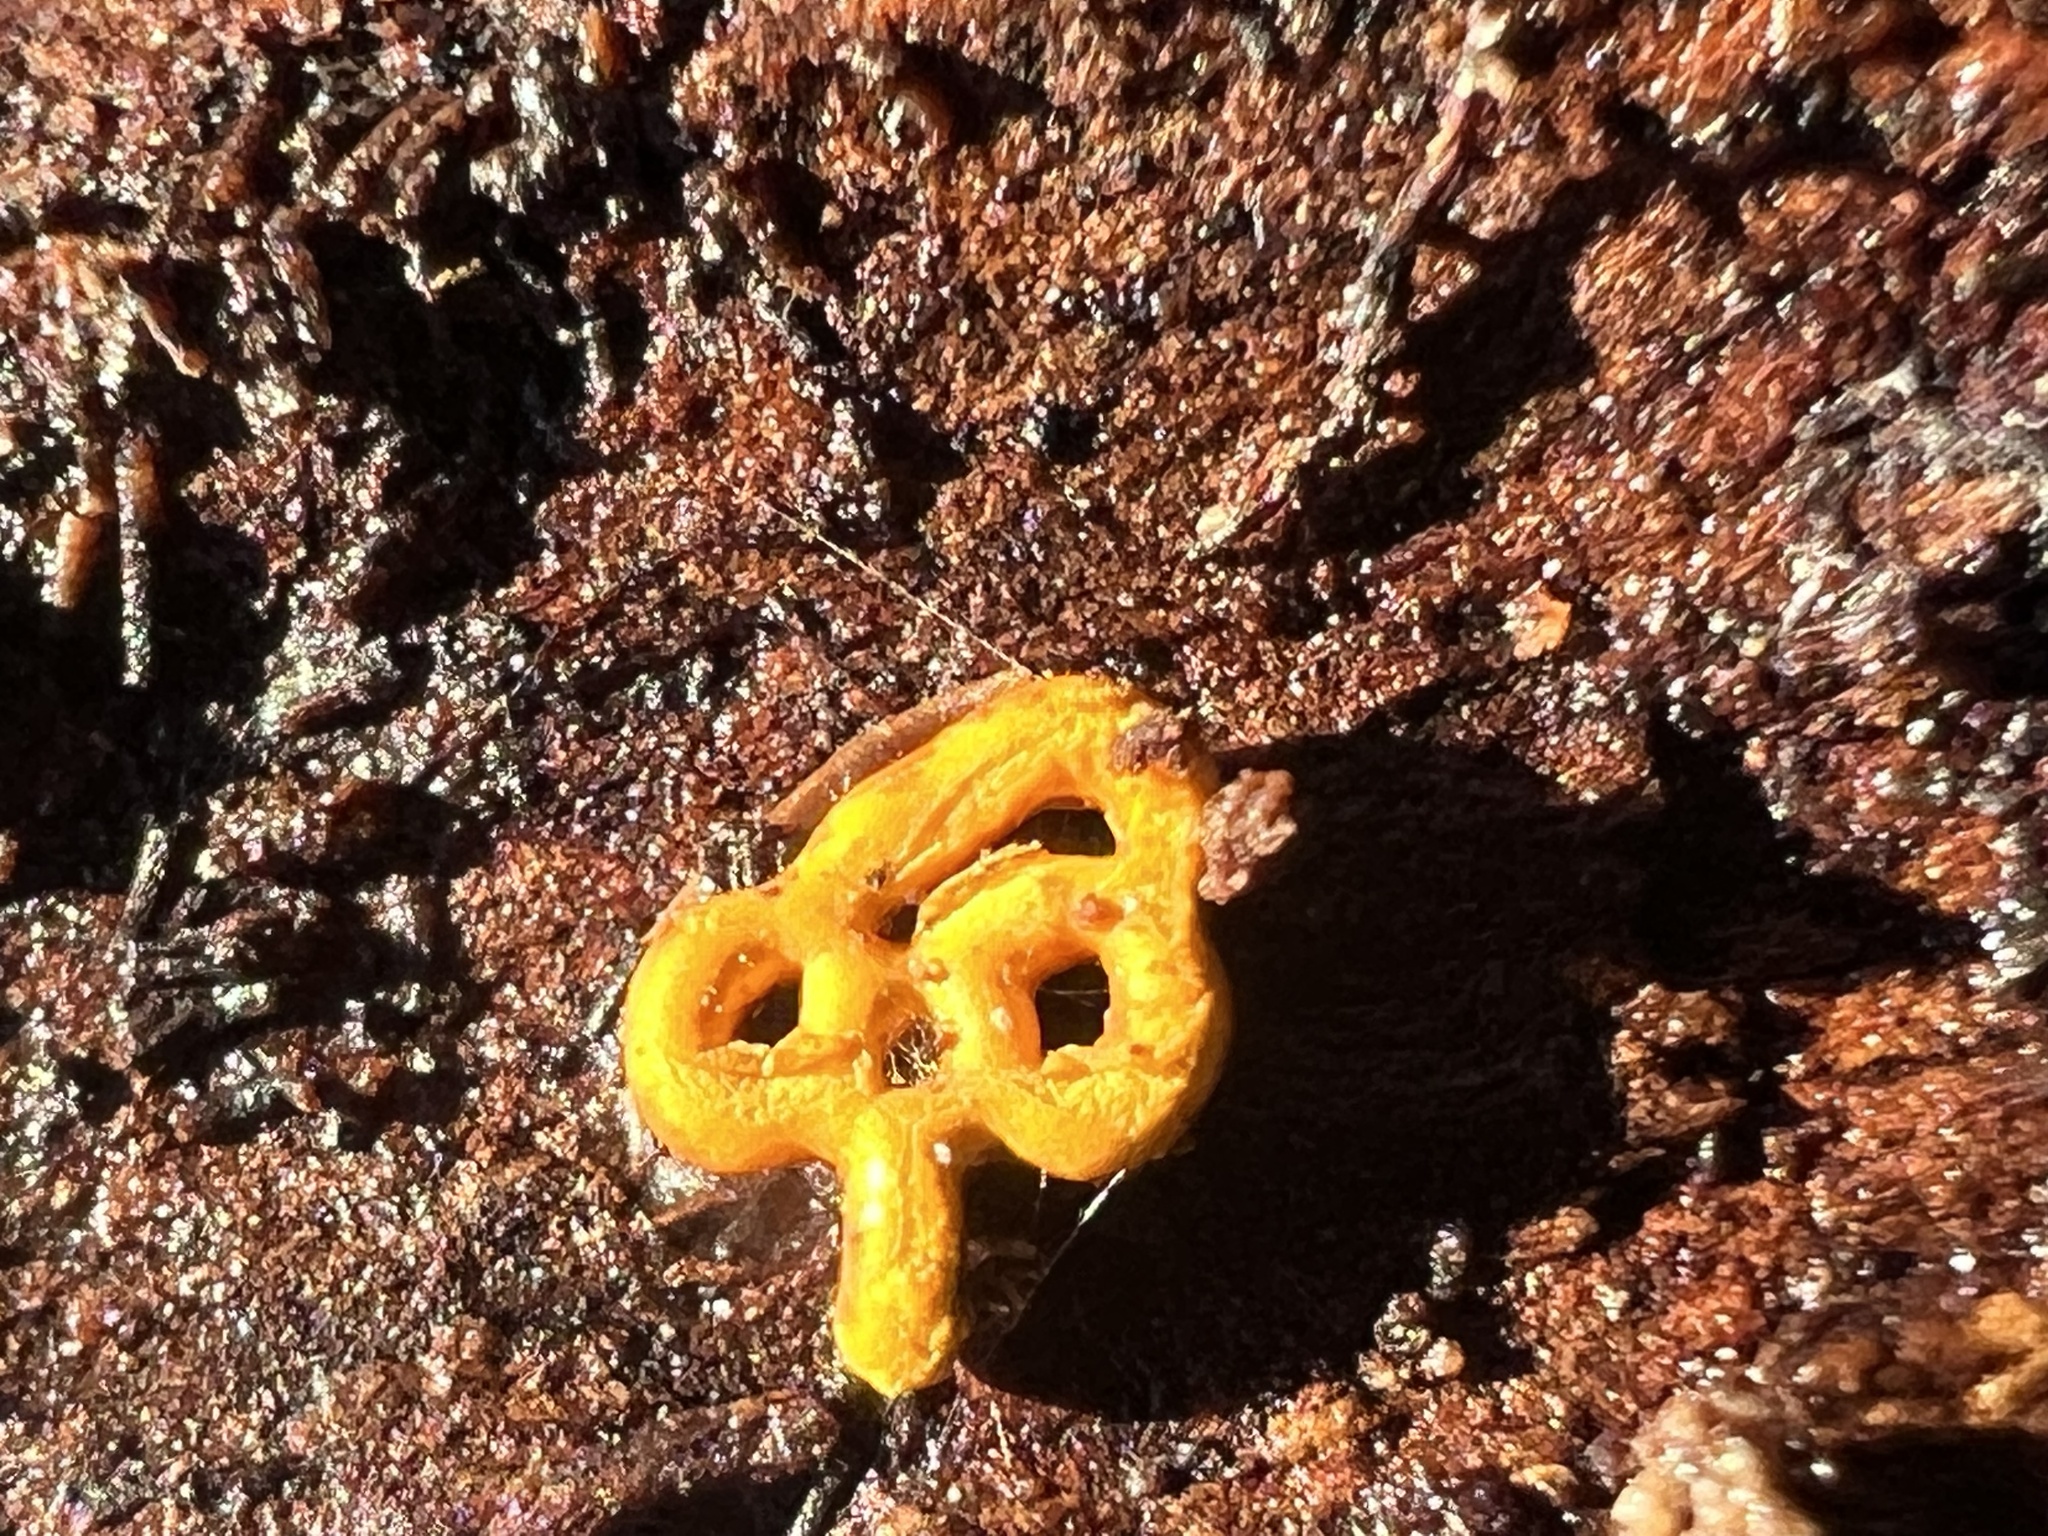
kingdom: Protozoa
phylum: Mycetozoa
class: Myxomycetes
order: Trichiales
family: Arcyriaceae
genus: Hemitrichia
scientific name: Hemitrichia serpula
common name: Pretzel slime mold
